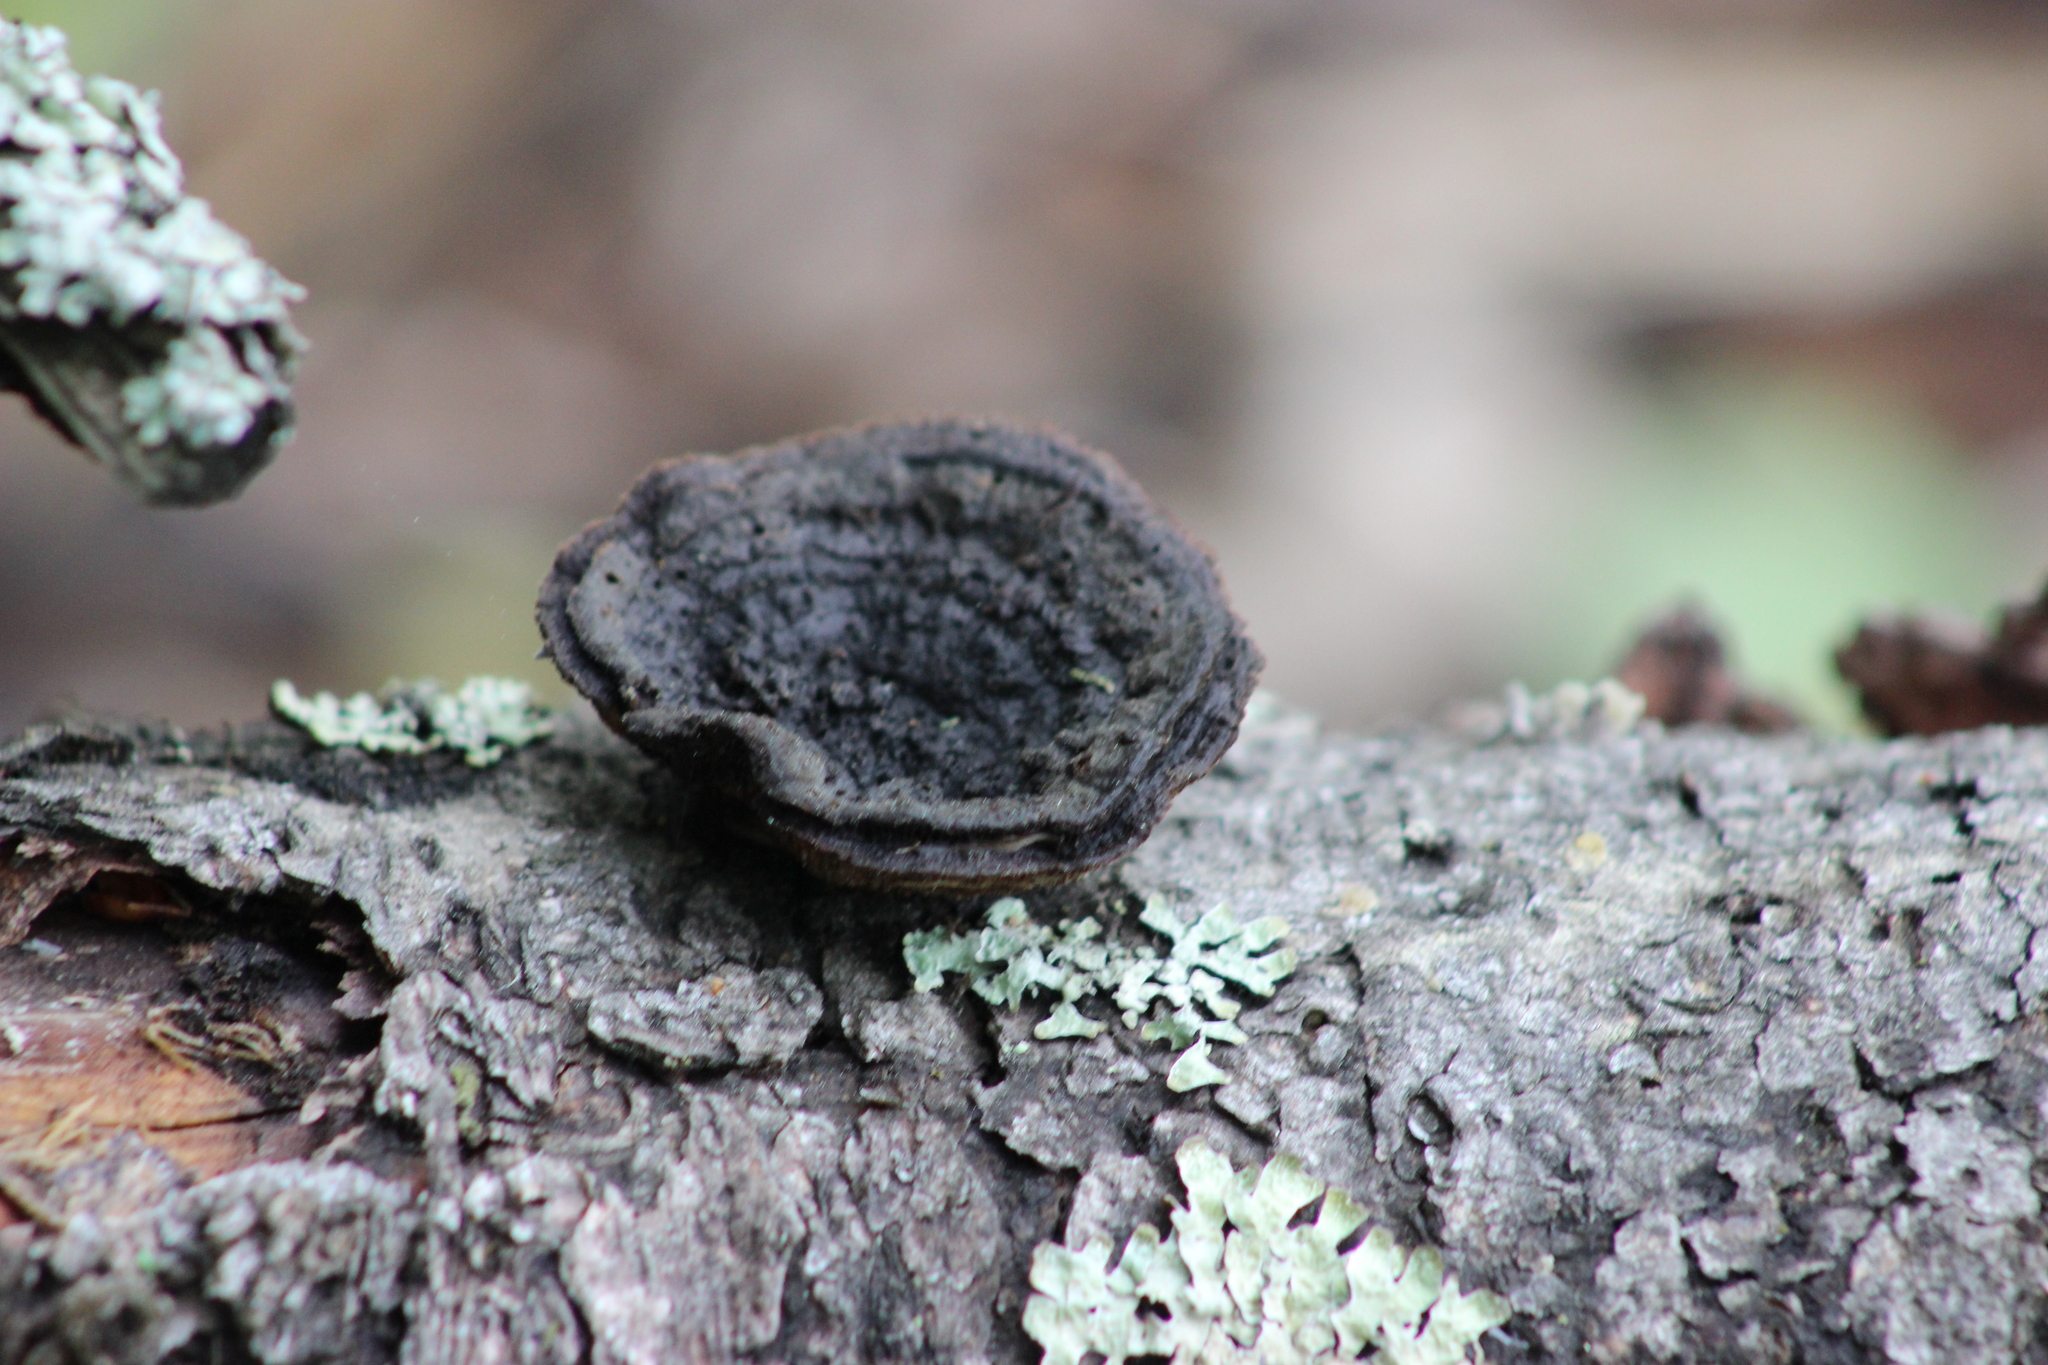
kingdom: Fungi
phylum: Basidiomycota
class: Agaricomycetes
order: Gloeophyllales
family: Gloeophyllaceae
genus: Gloeophyllum
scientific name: Gloeophyllum sepiarium
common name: Conifer mazegill
